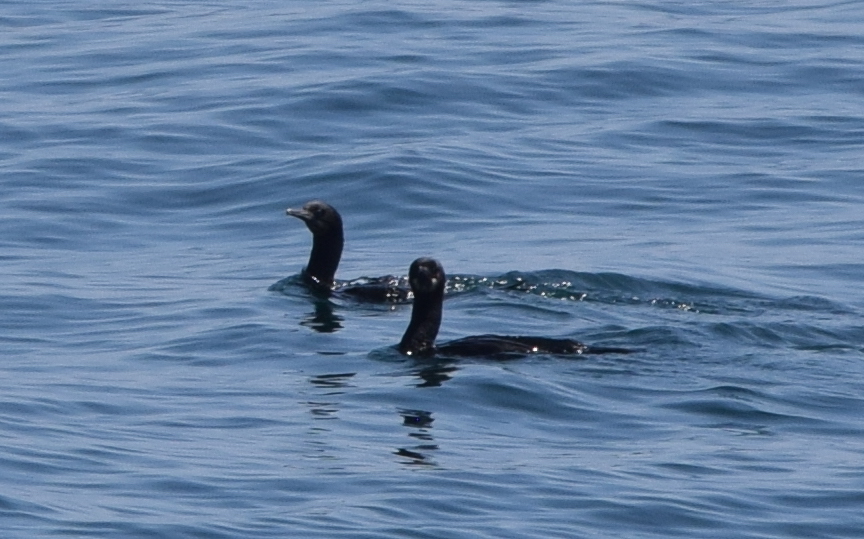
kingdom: Animalia
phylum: Chordata
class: Aves
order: Suliformes
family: Phalacrocoracidae
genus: Urile
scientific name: Urile penicillatus
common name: Brandt's cormorant
